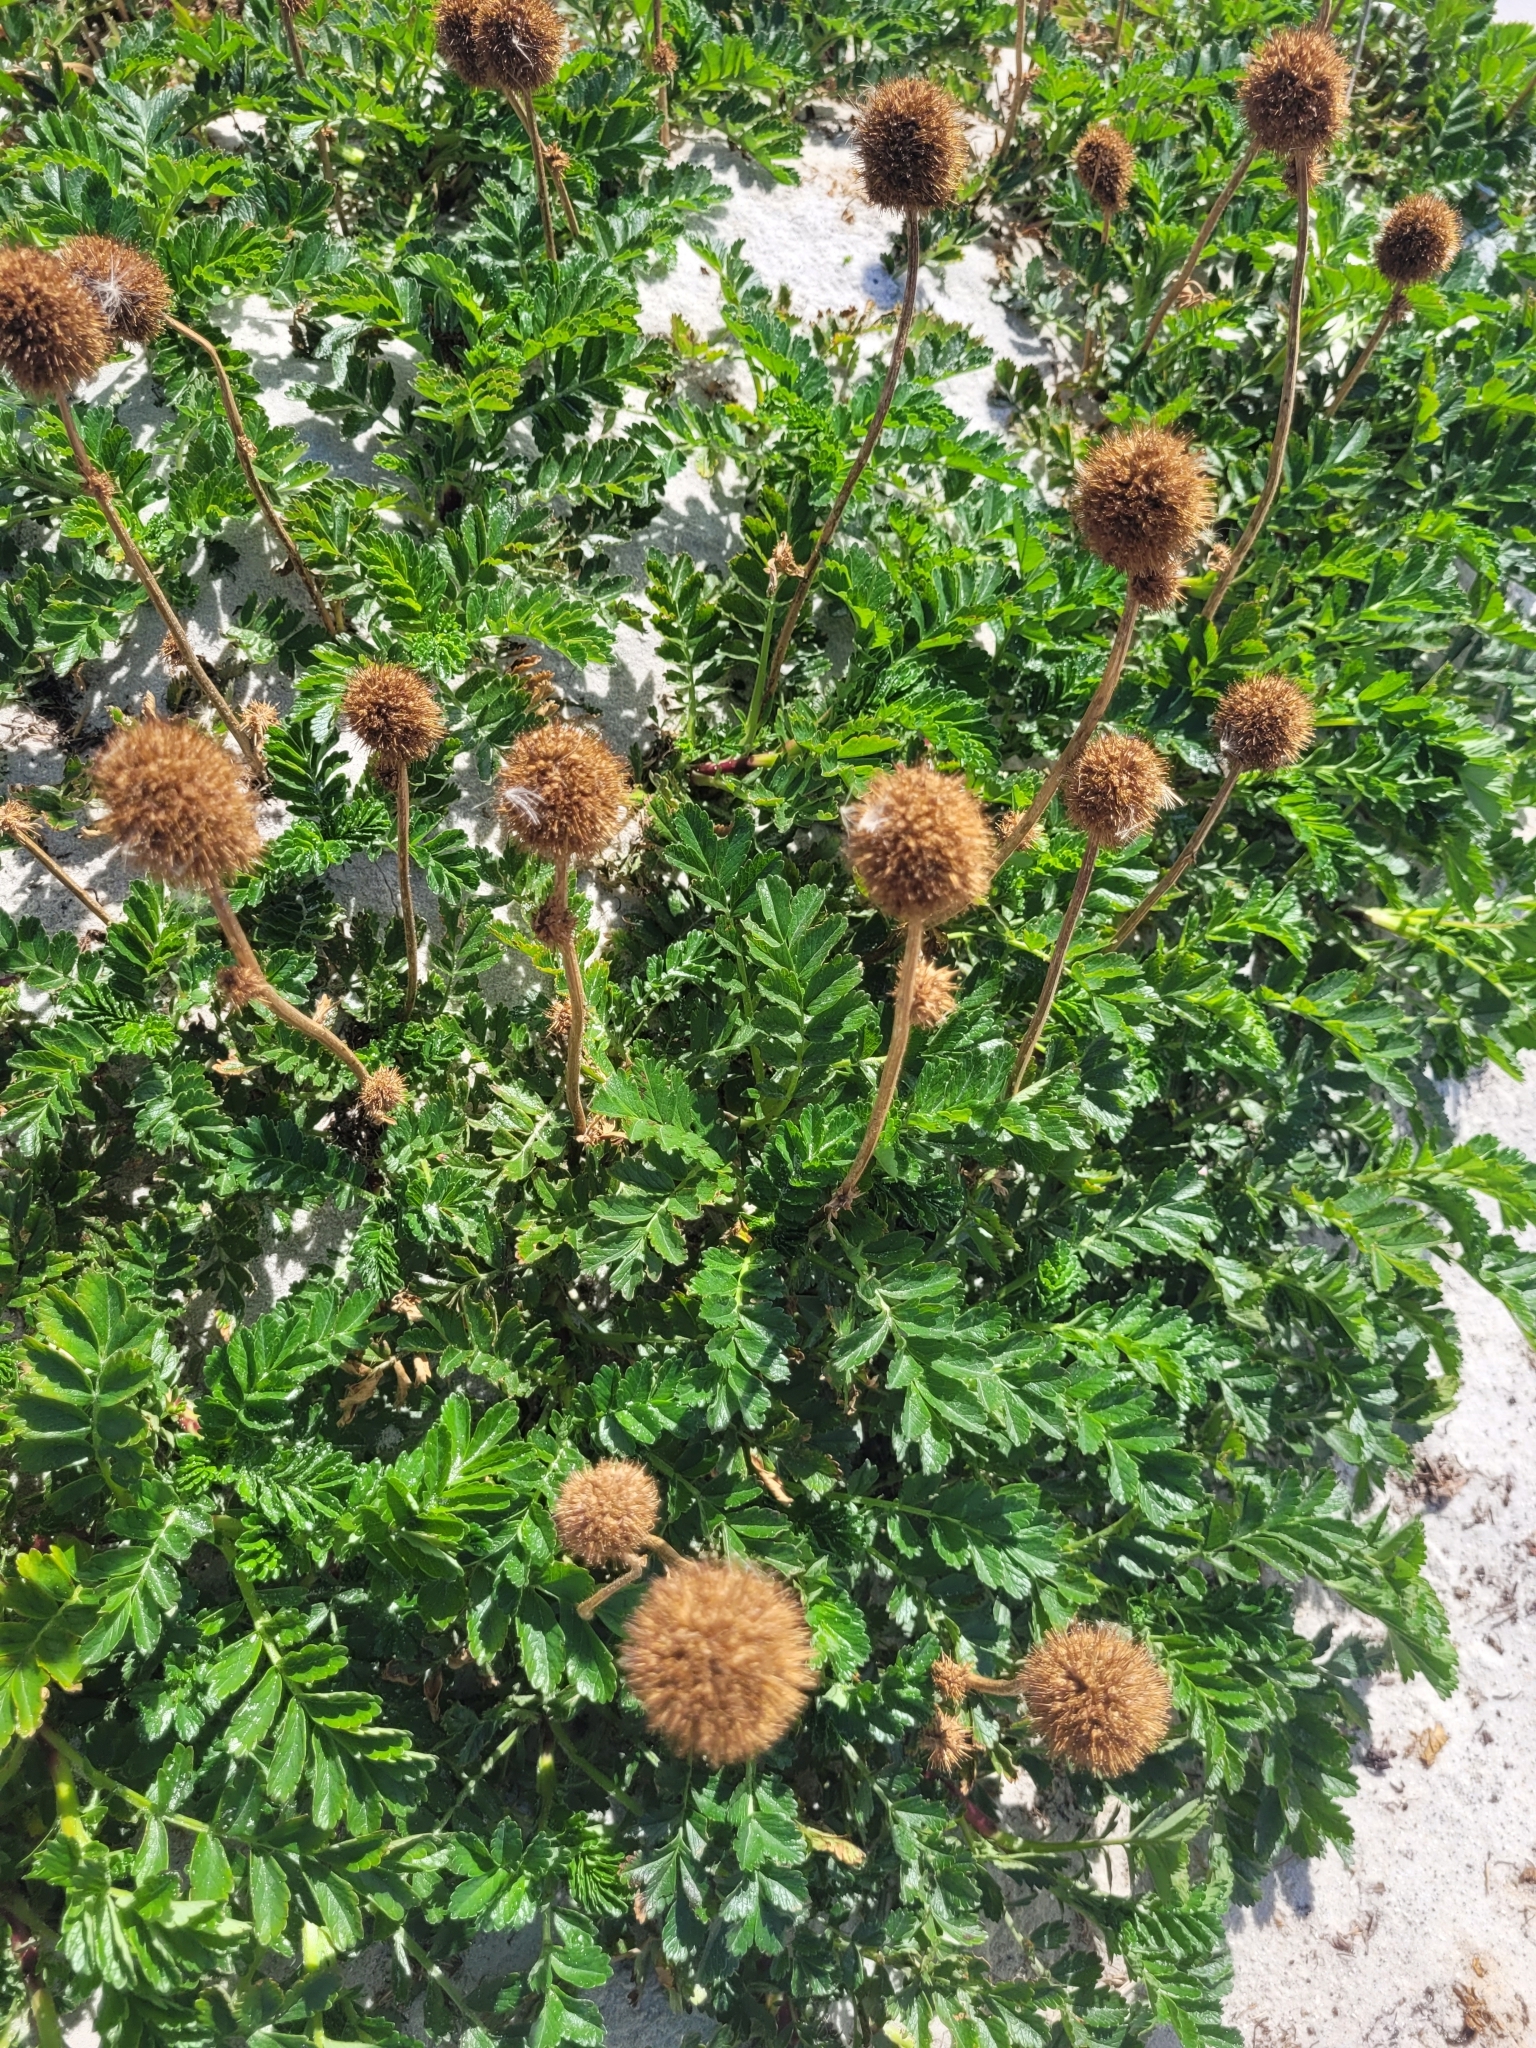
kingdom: Plantae
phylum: Tracheophyta
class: Magnoliopsida
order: Rosales
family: Rosaceae
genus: Acaena
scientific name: Acaena magellanica
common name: New zealand burr
